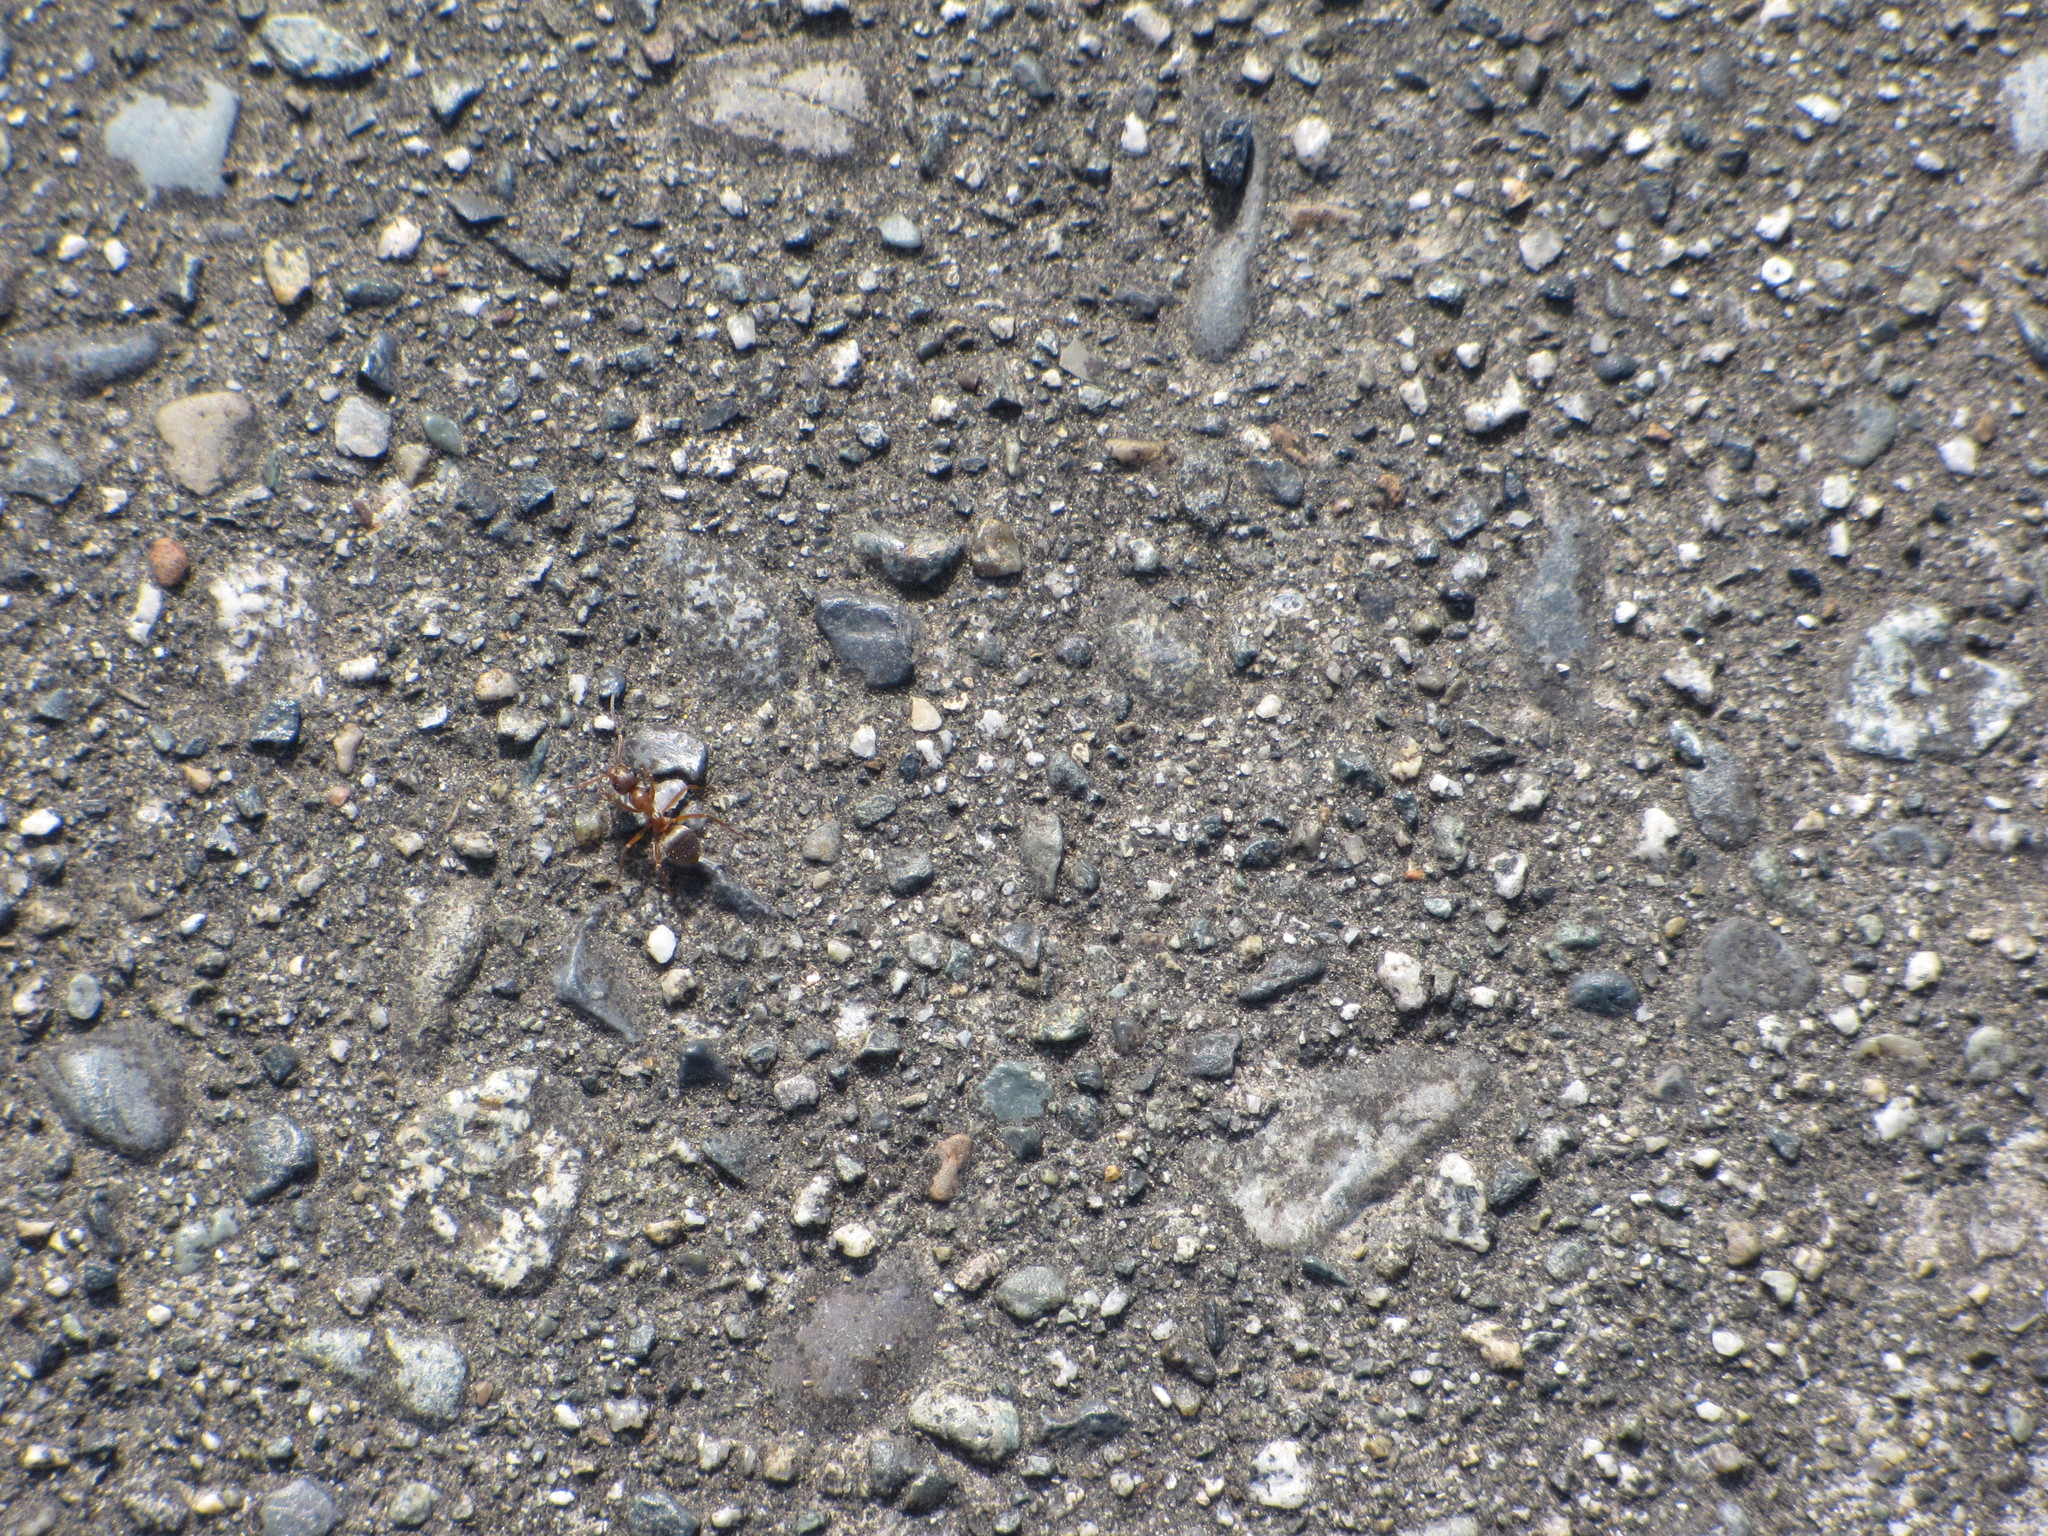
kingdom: Animalia
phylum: Arthropoda
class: Insecta
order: Hymenoptera
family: Formicidae
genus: Formica
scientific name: Formica
